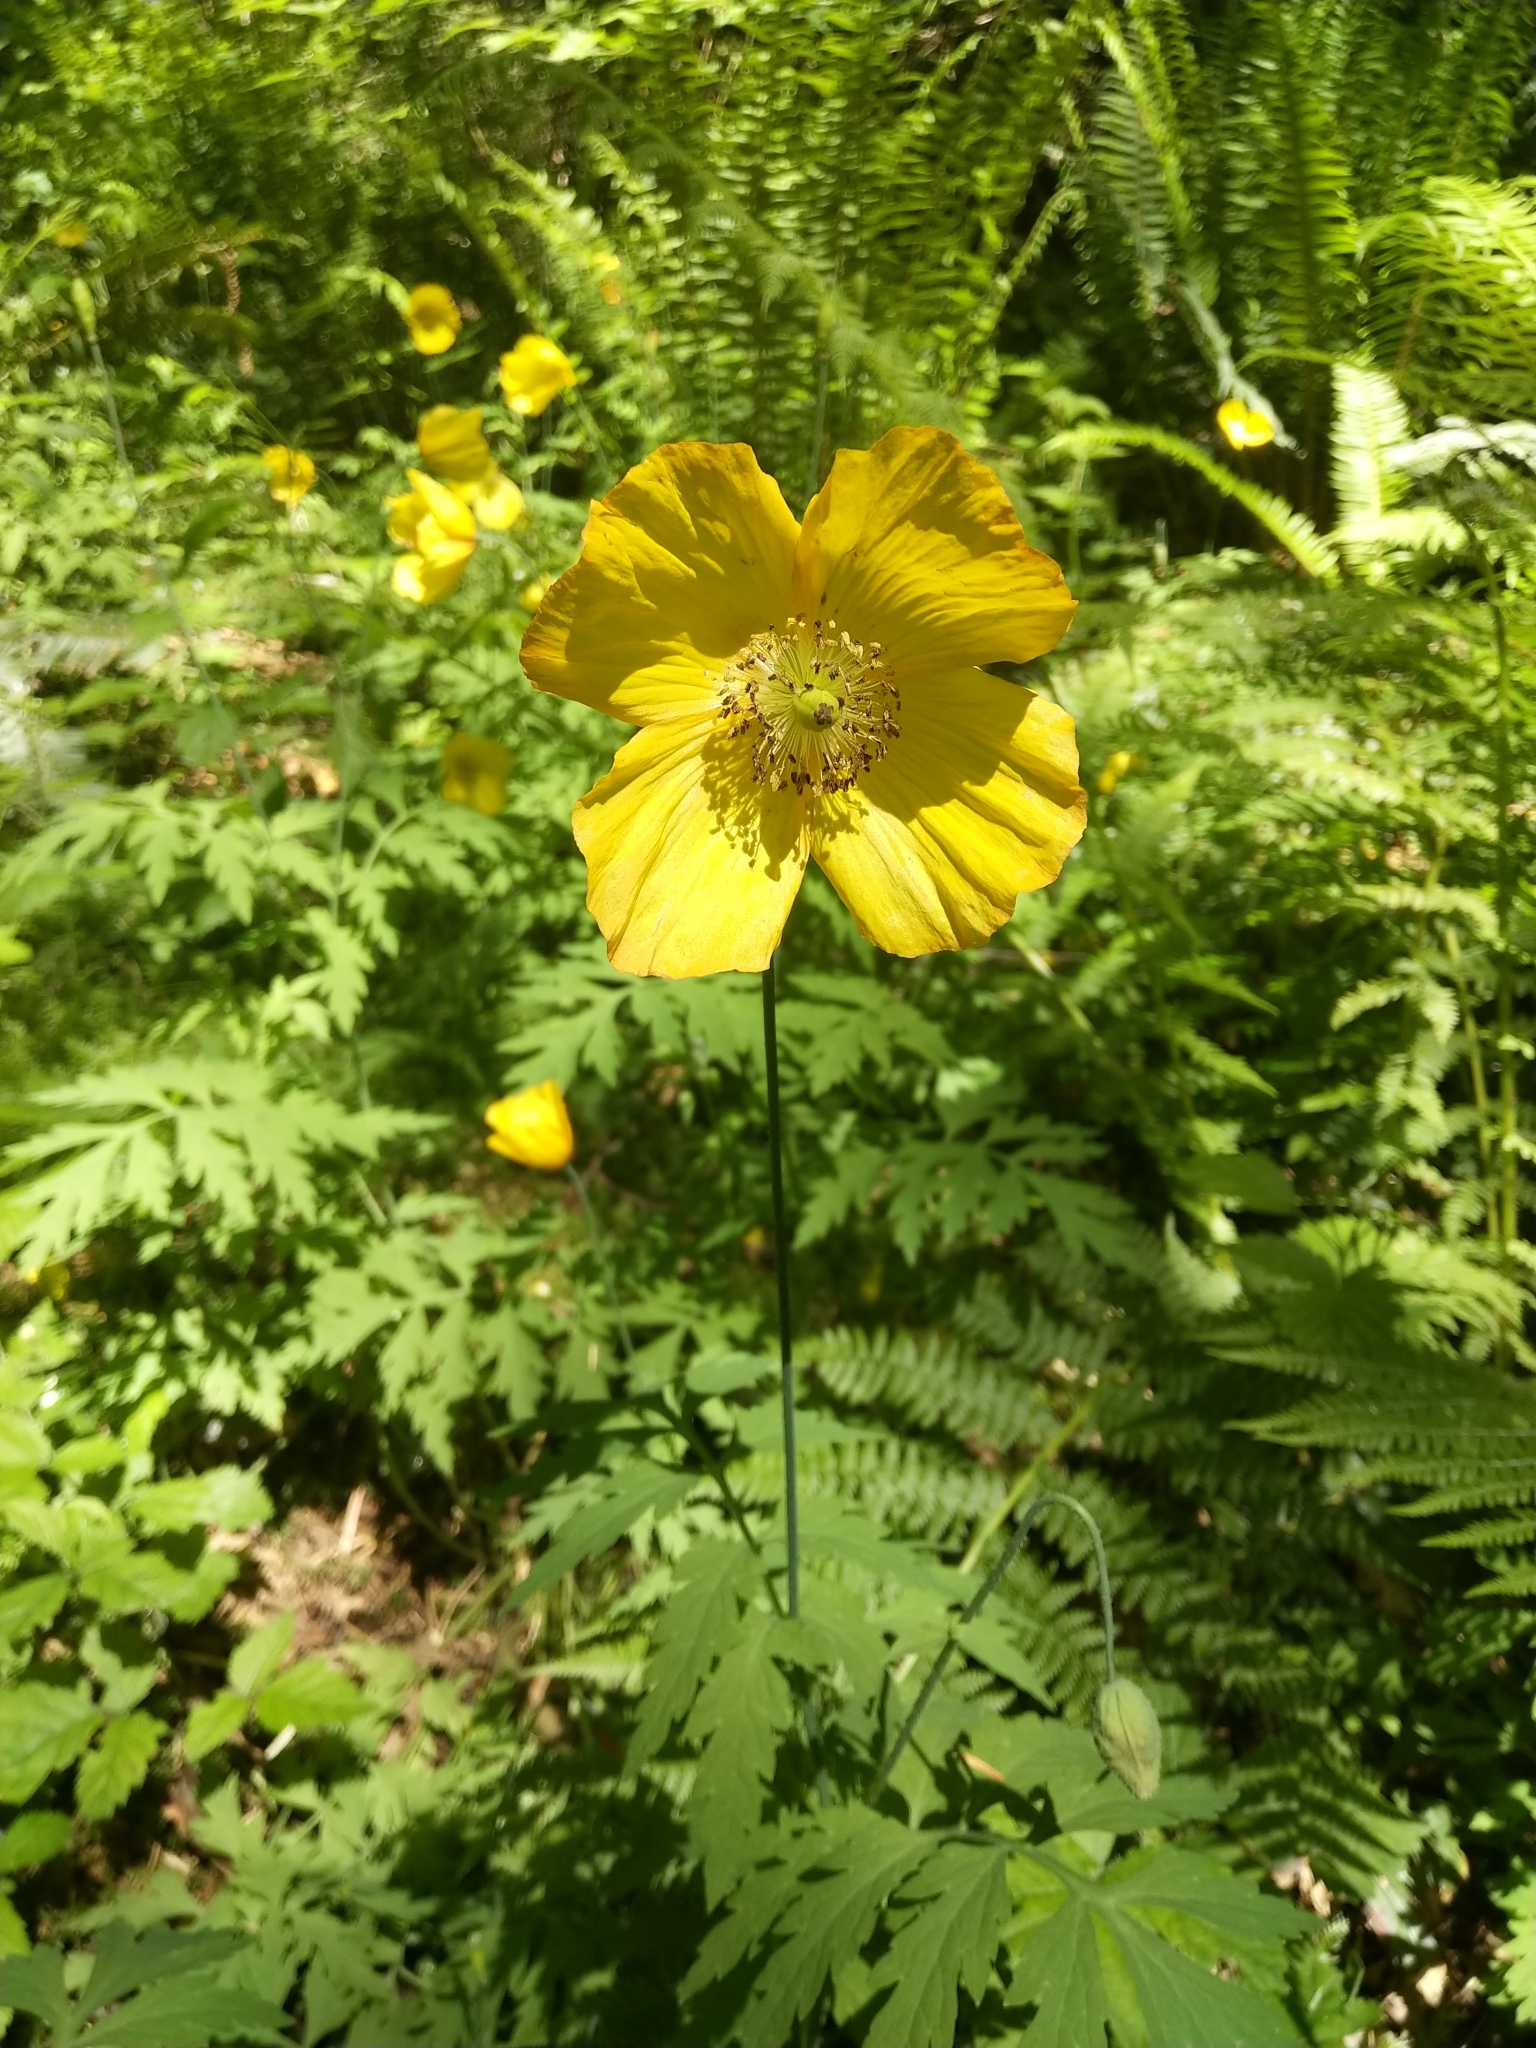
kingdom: Plantae
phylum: Tracheophyta
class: Magnoliopsida
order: Ranunculales
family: Papaveraceae
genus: Papaver
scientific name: Papaver cambricum
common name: Poppy
